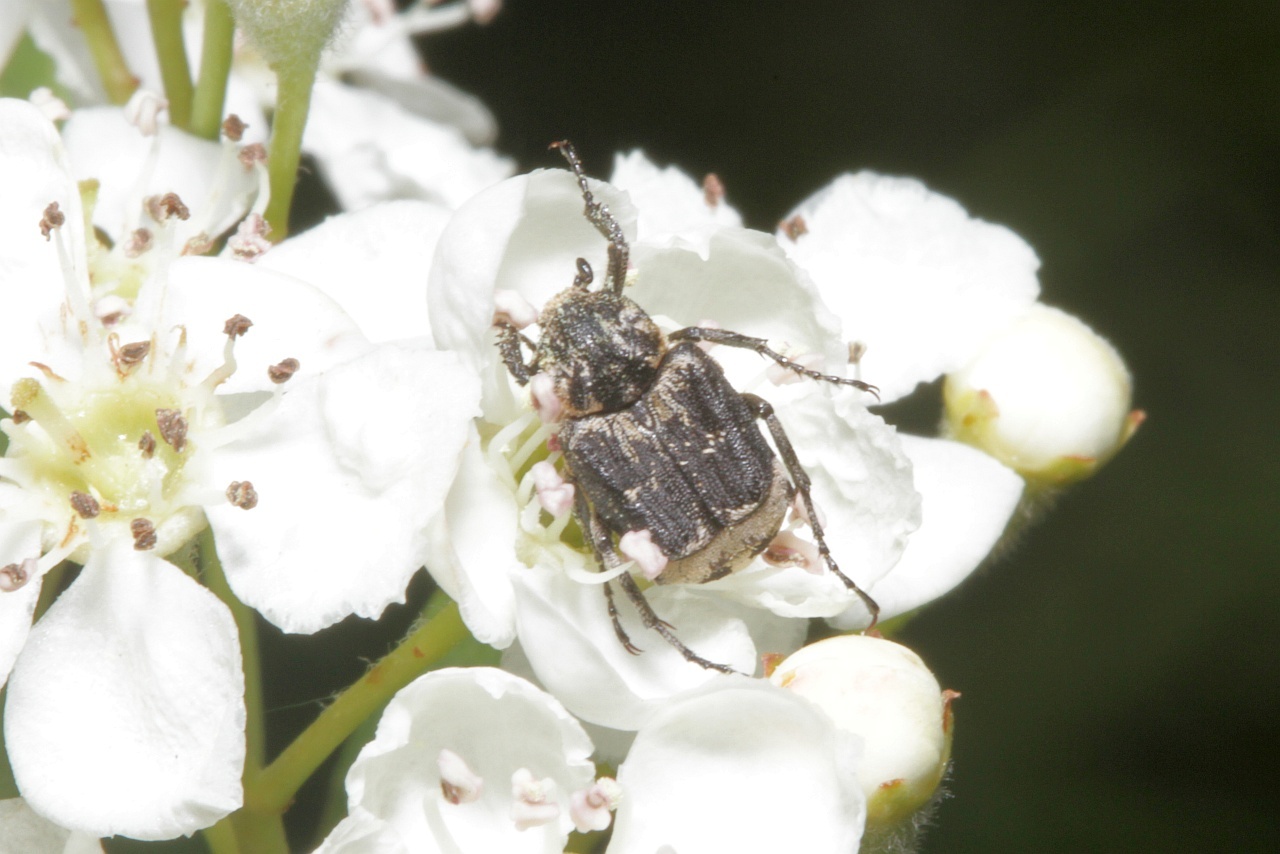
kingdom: Animalia
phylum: Arthropoda
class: Insecta
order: Coleoptera
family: Scarabaeidae
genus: Valgus
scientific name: Valgus hemipterus
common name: Bug flower chafer
